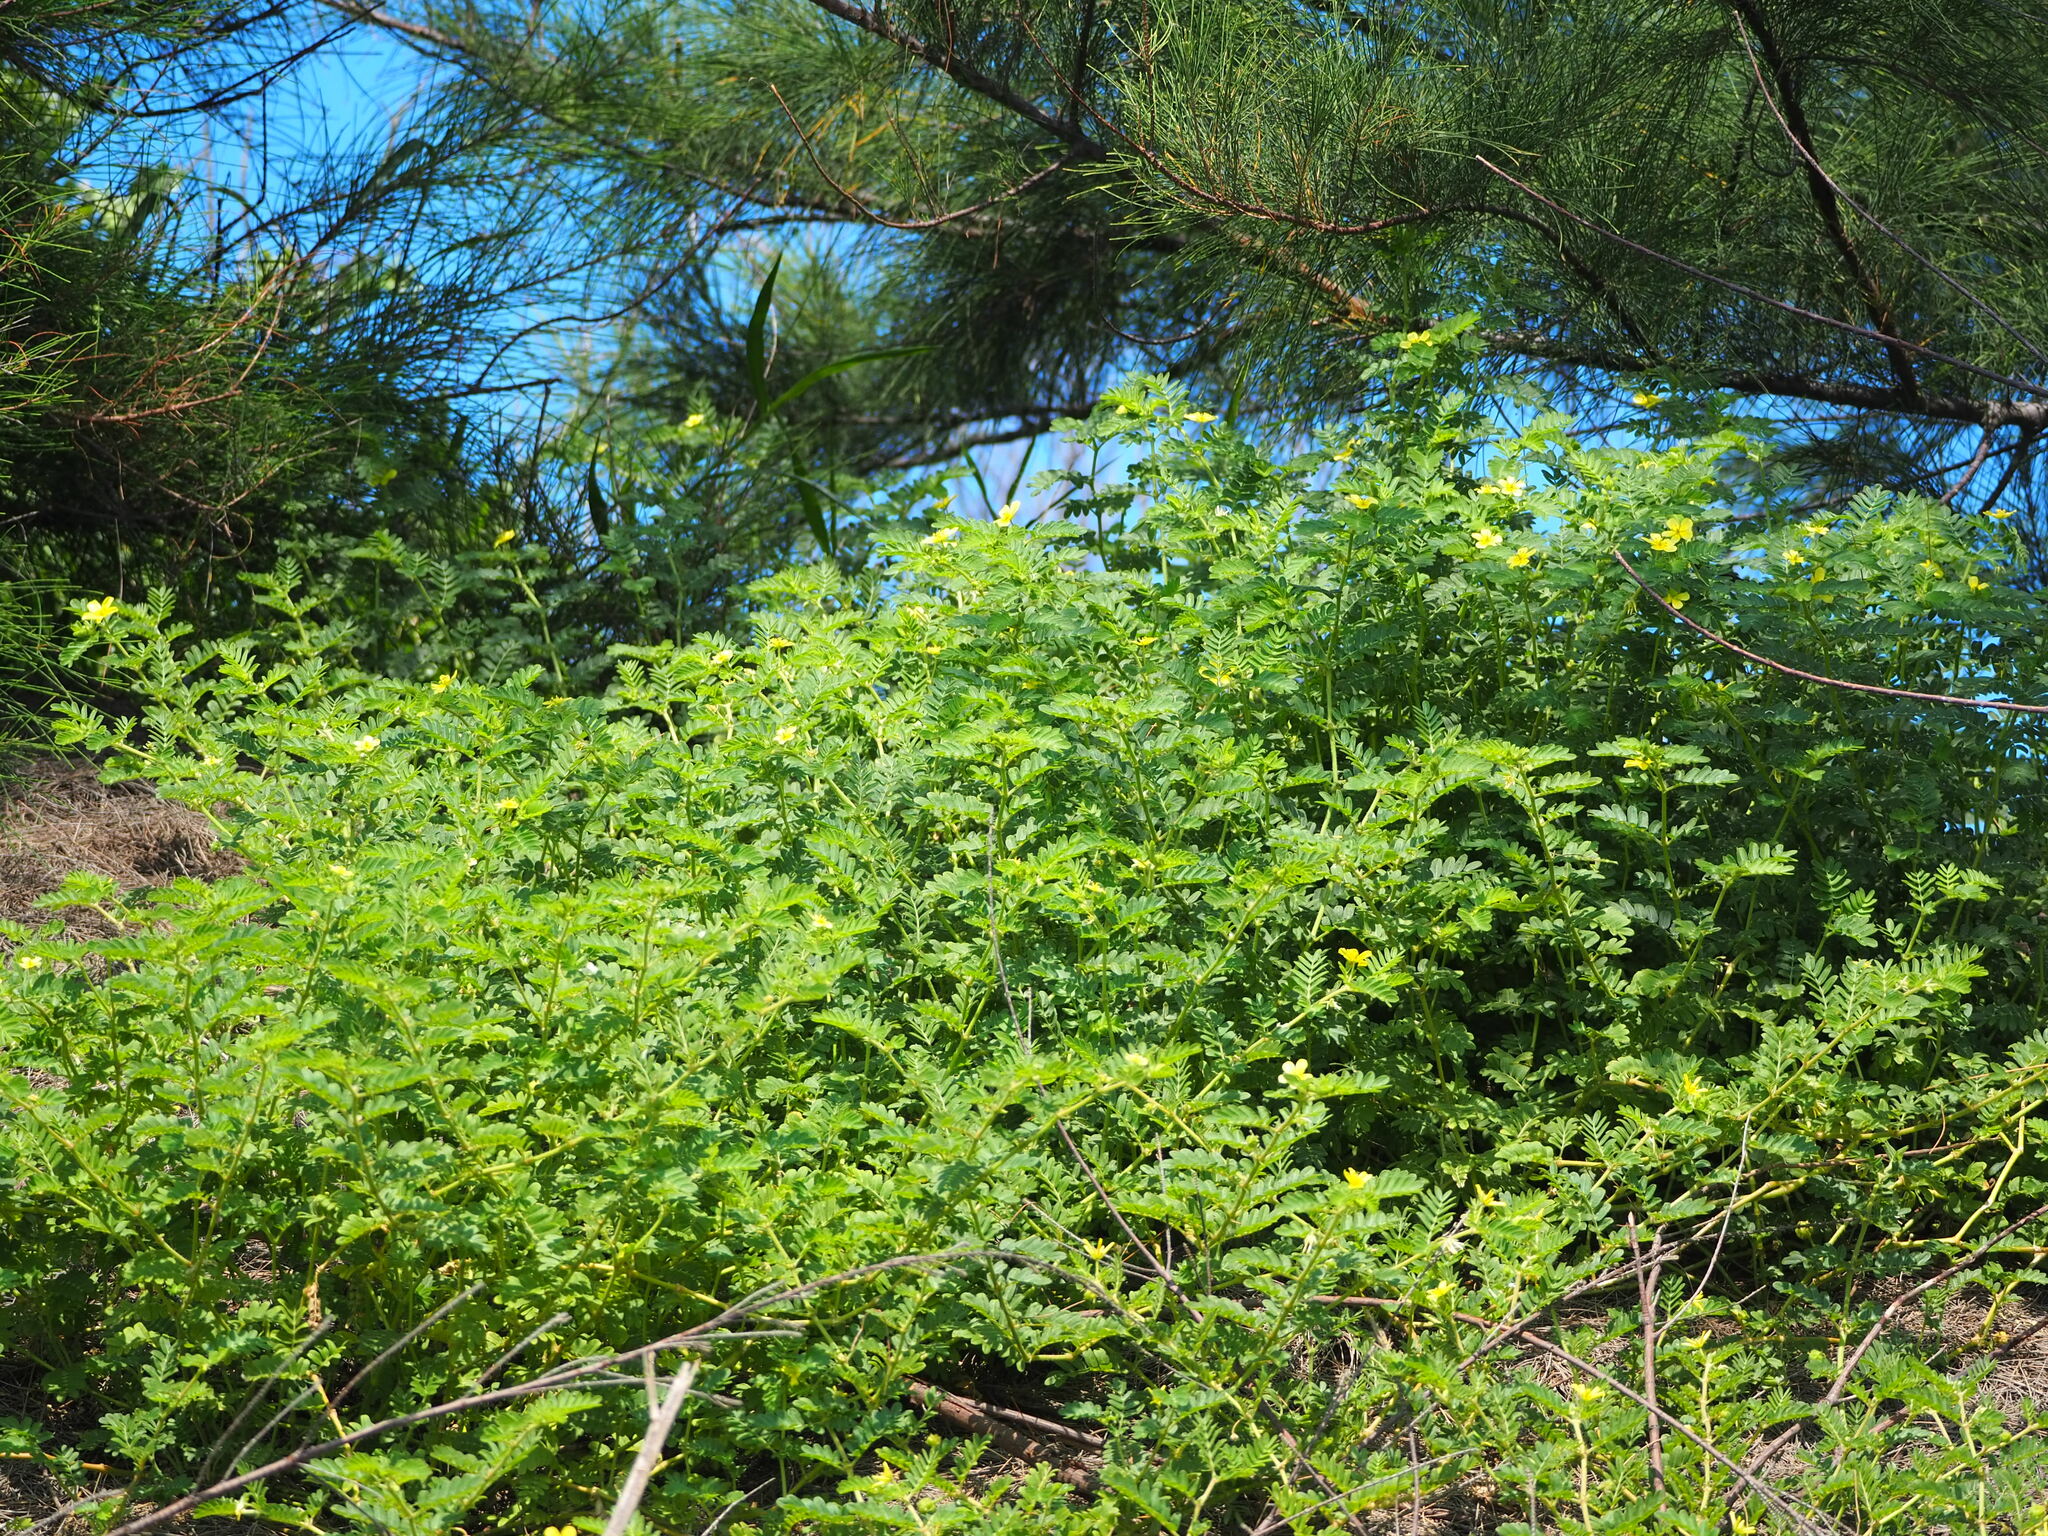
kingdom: Plantae
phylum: Tracheophyta
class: Magnoliopsida
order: Zygophyllales
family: Zygophyllaceae
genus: Tribulus
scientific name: Tribulus cistoides
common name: Jamaican feverplant
